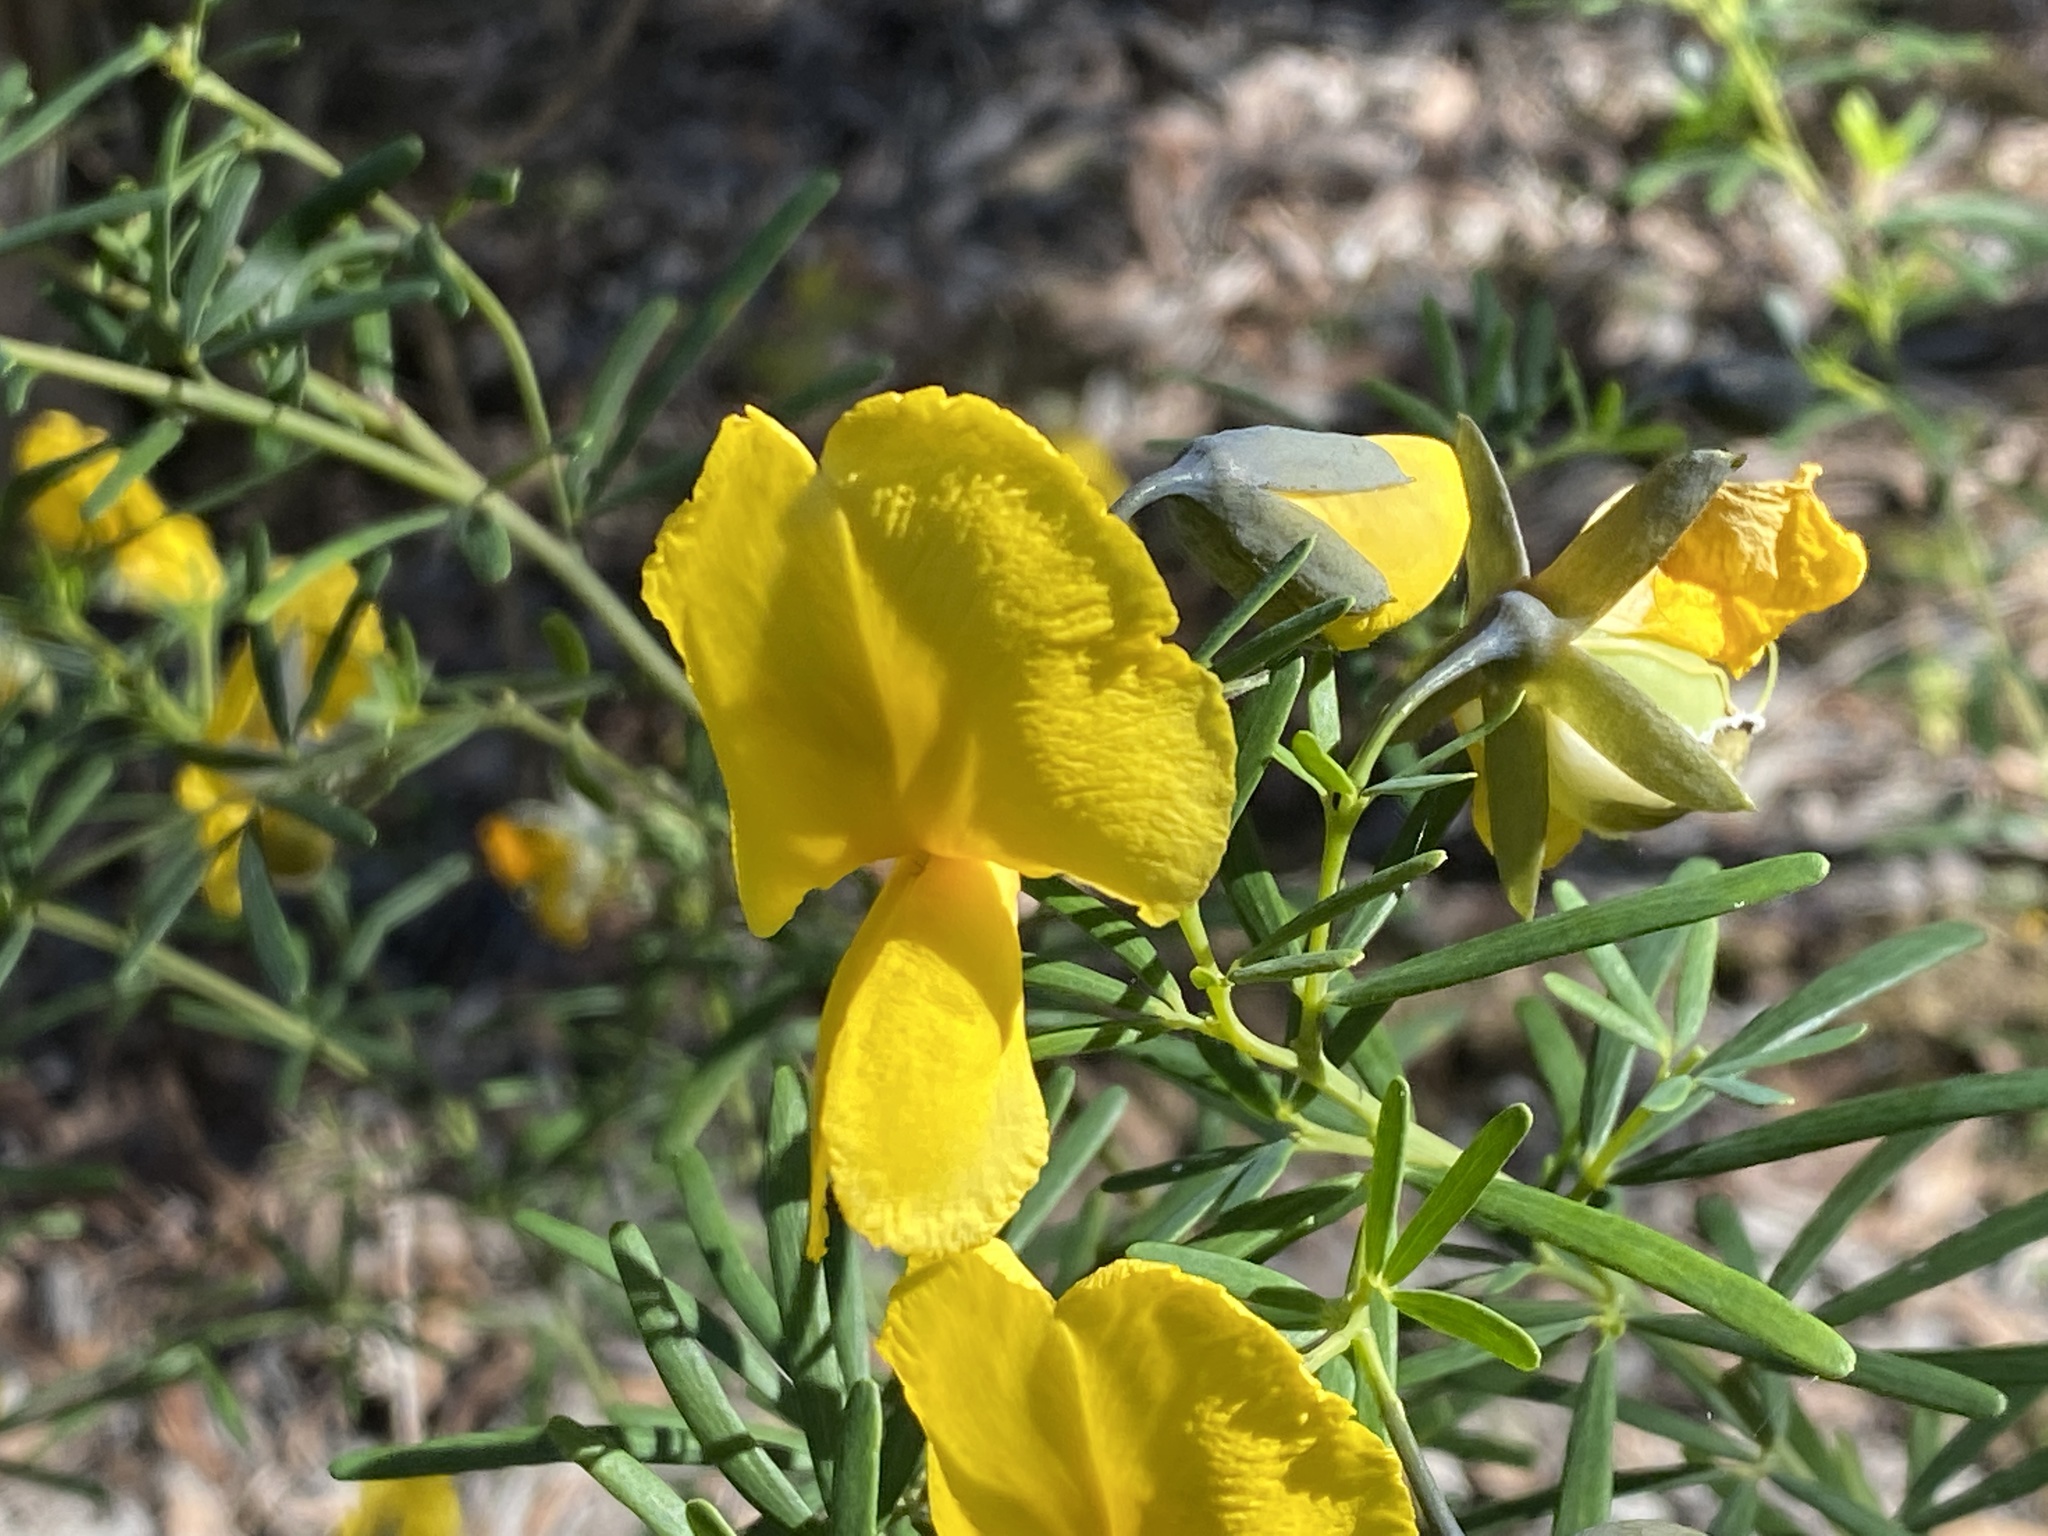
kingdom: Plantae
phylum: Tracheophyta
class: Magnoliopsida
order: Fabales
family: Fabaceae
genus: Gompholobium
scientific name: Gompholobium latifolium
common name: Broadleaf wedge-pea
